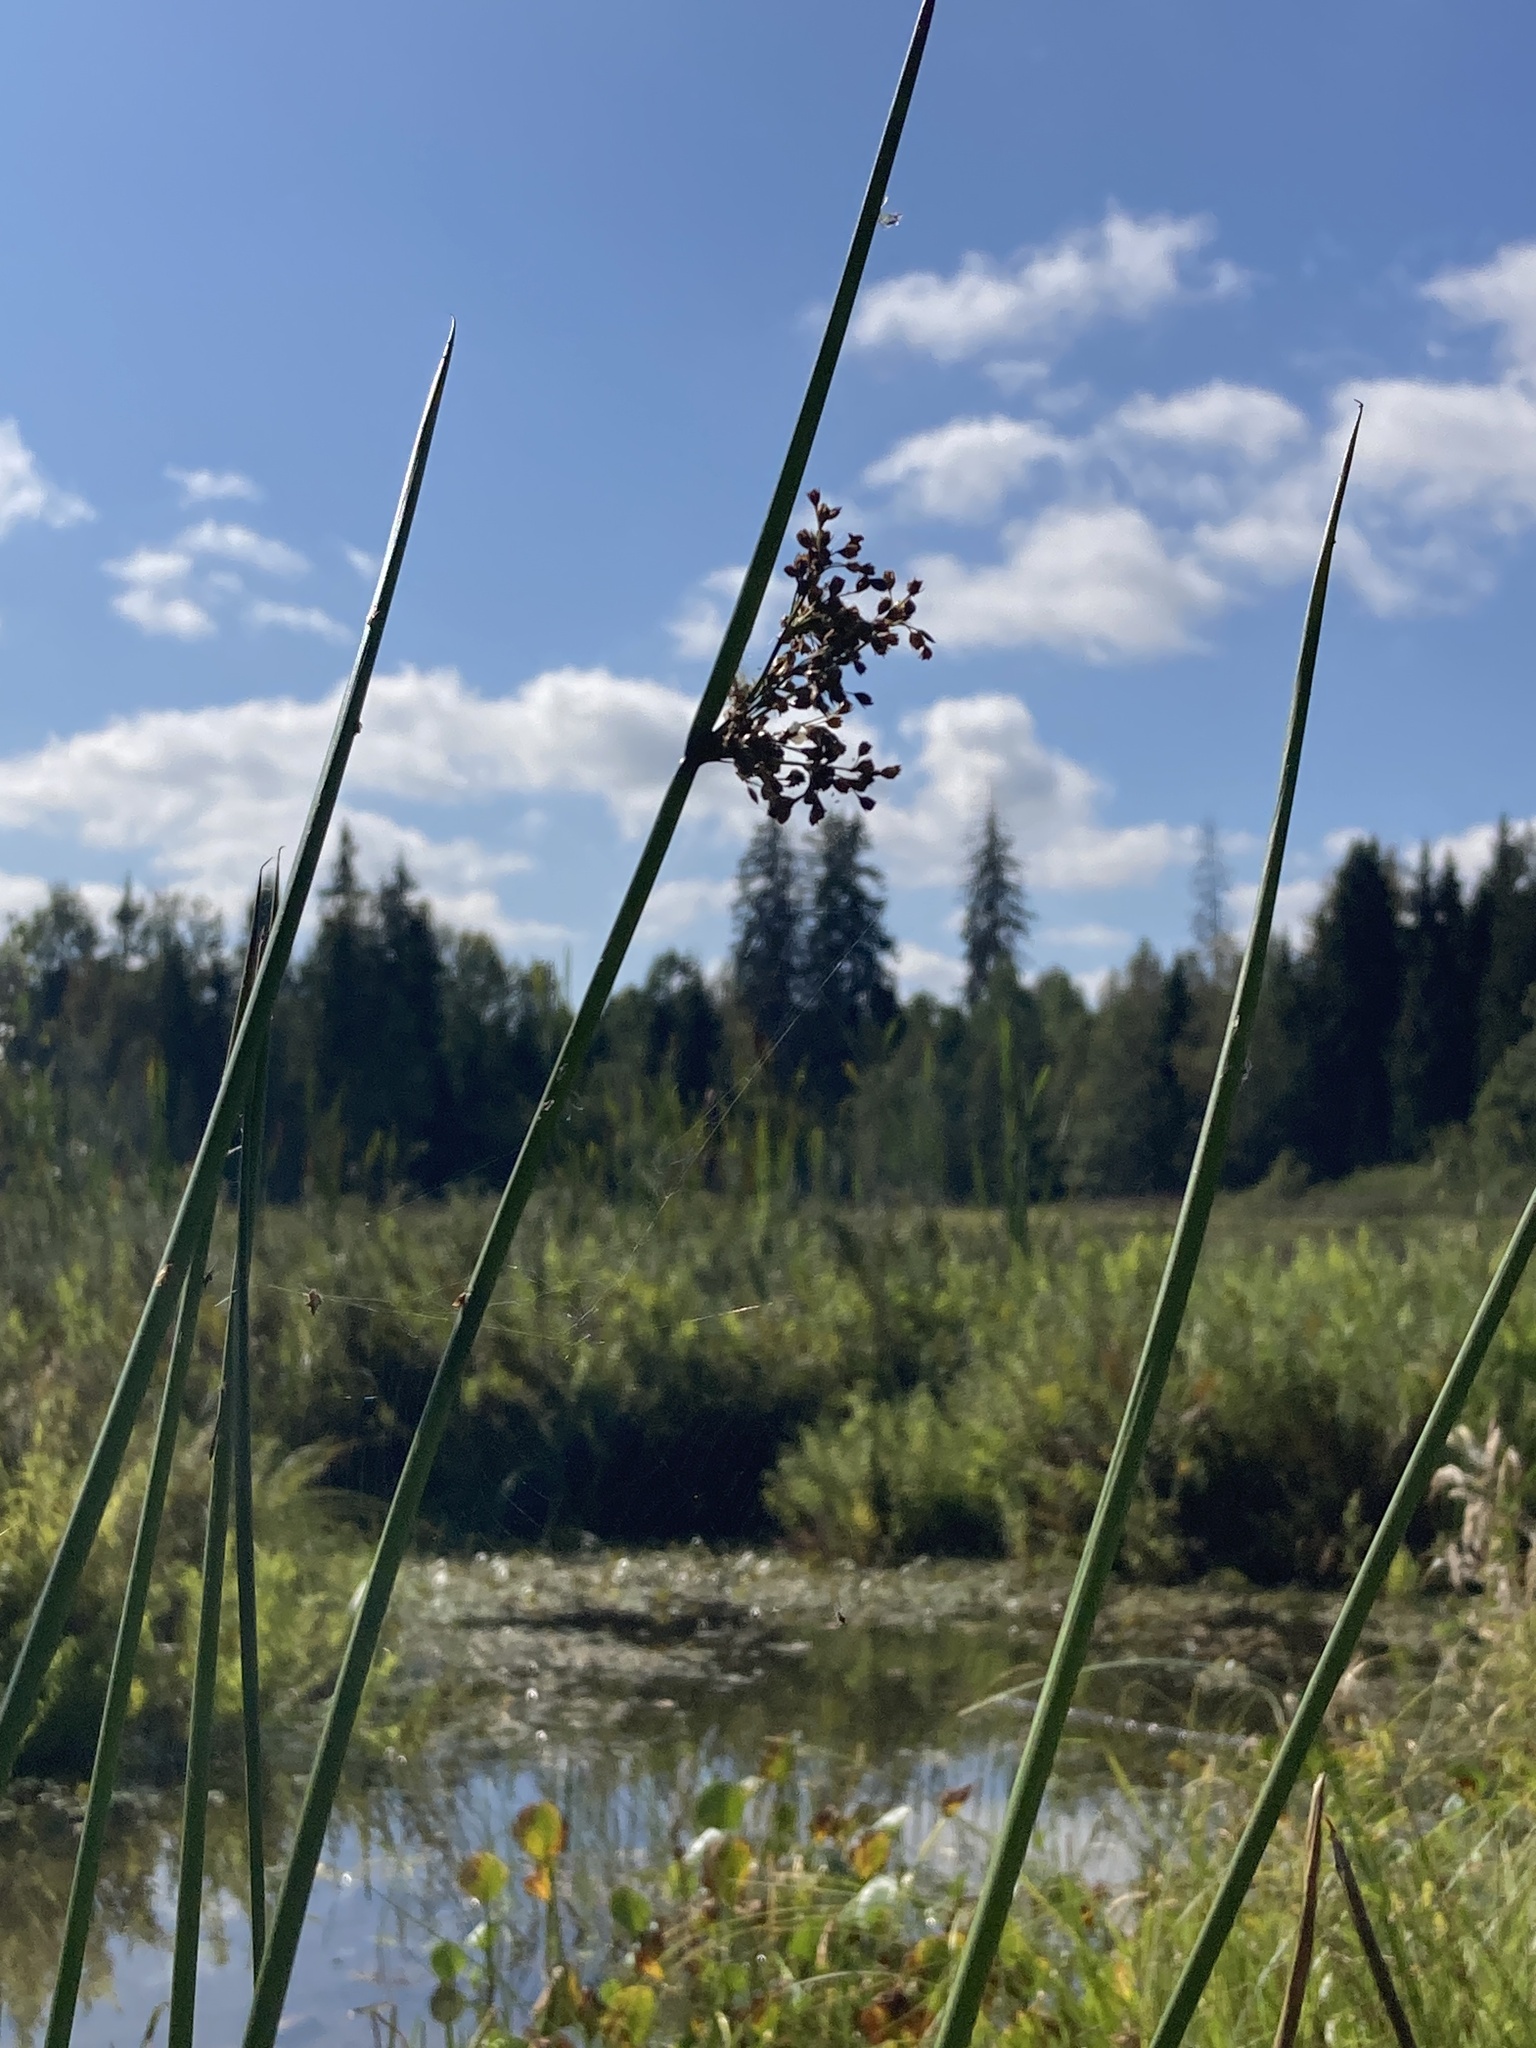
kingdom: Plantae
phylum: Tracheophyta
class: Liliopsida
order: Poales
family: Juncaceae
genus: Juncus
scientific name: Juncus effusus
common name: Soft rush
